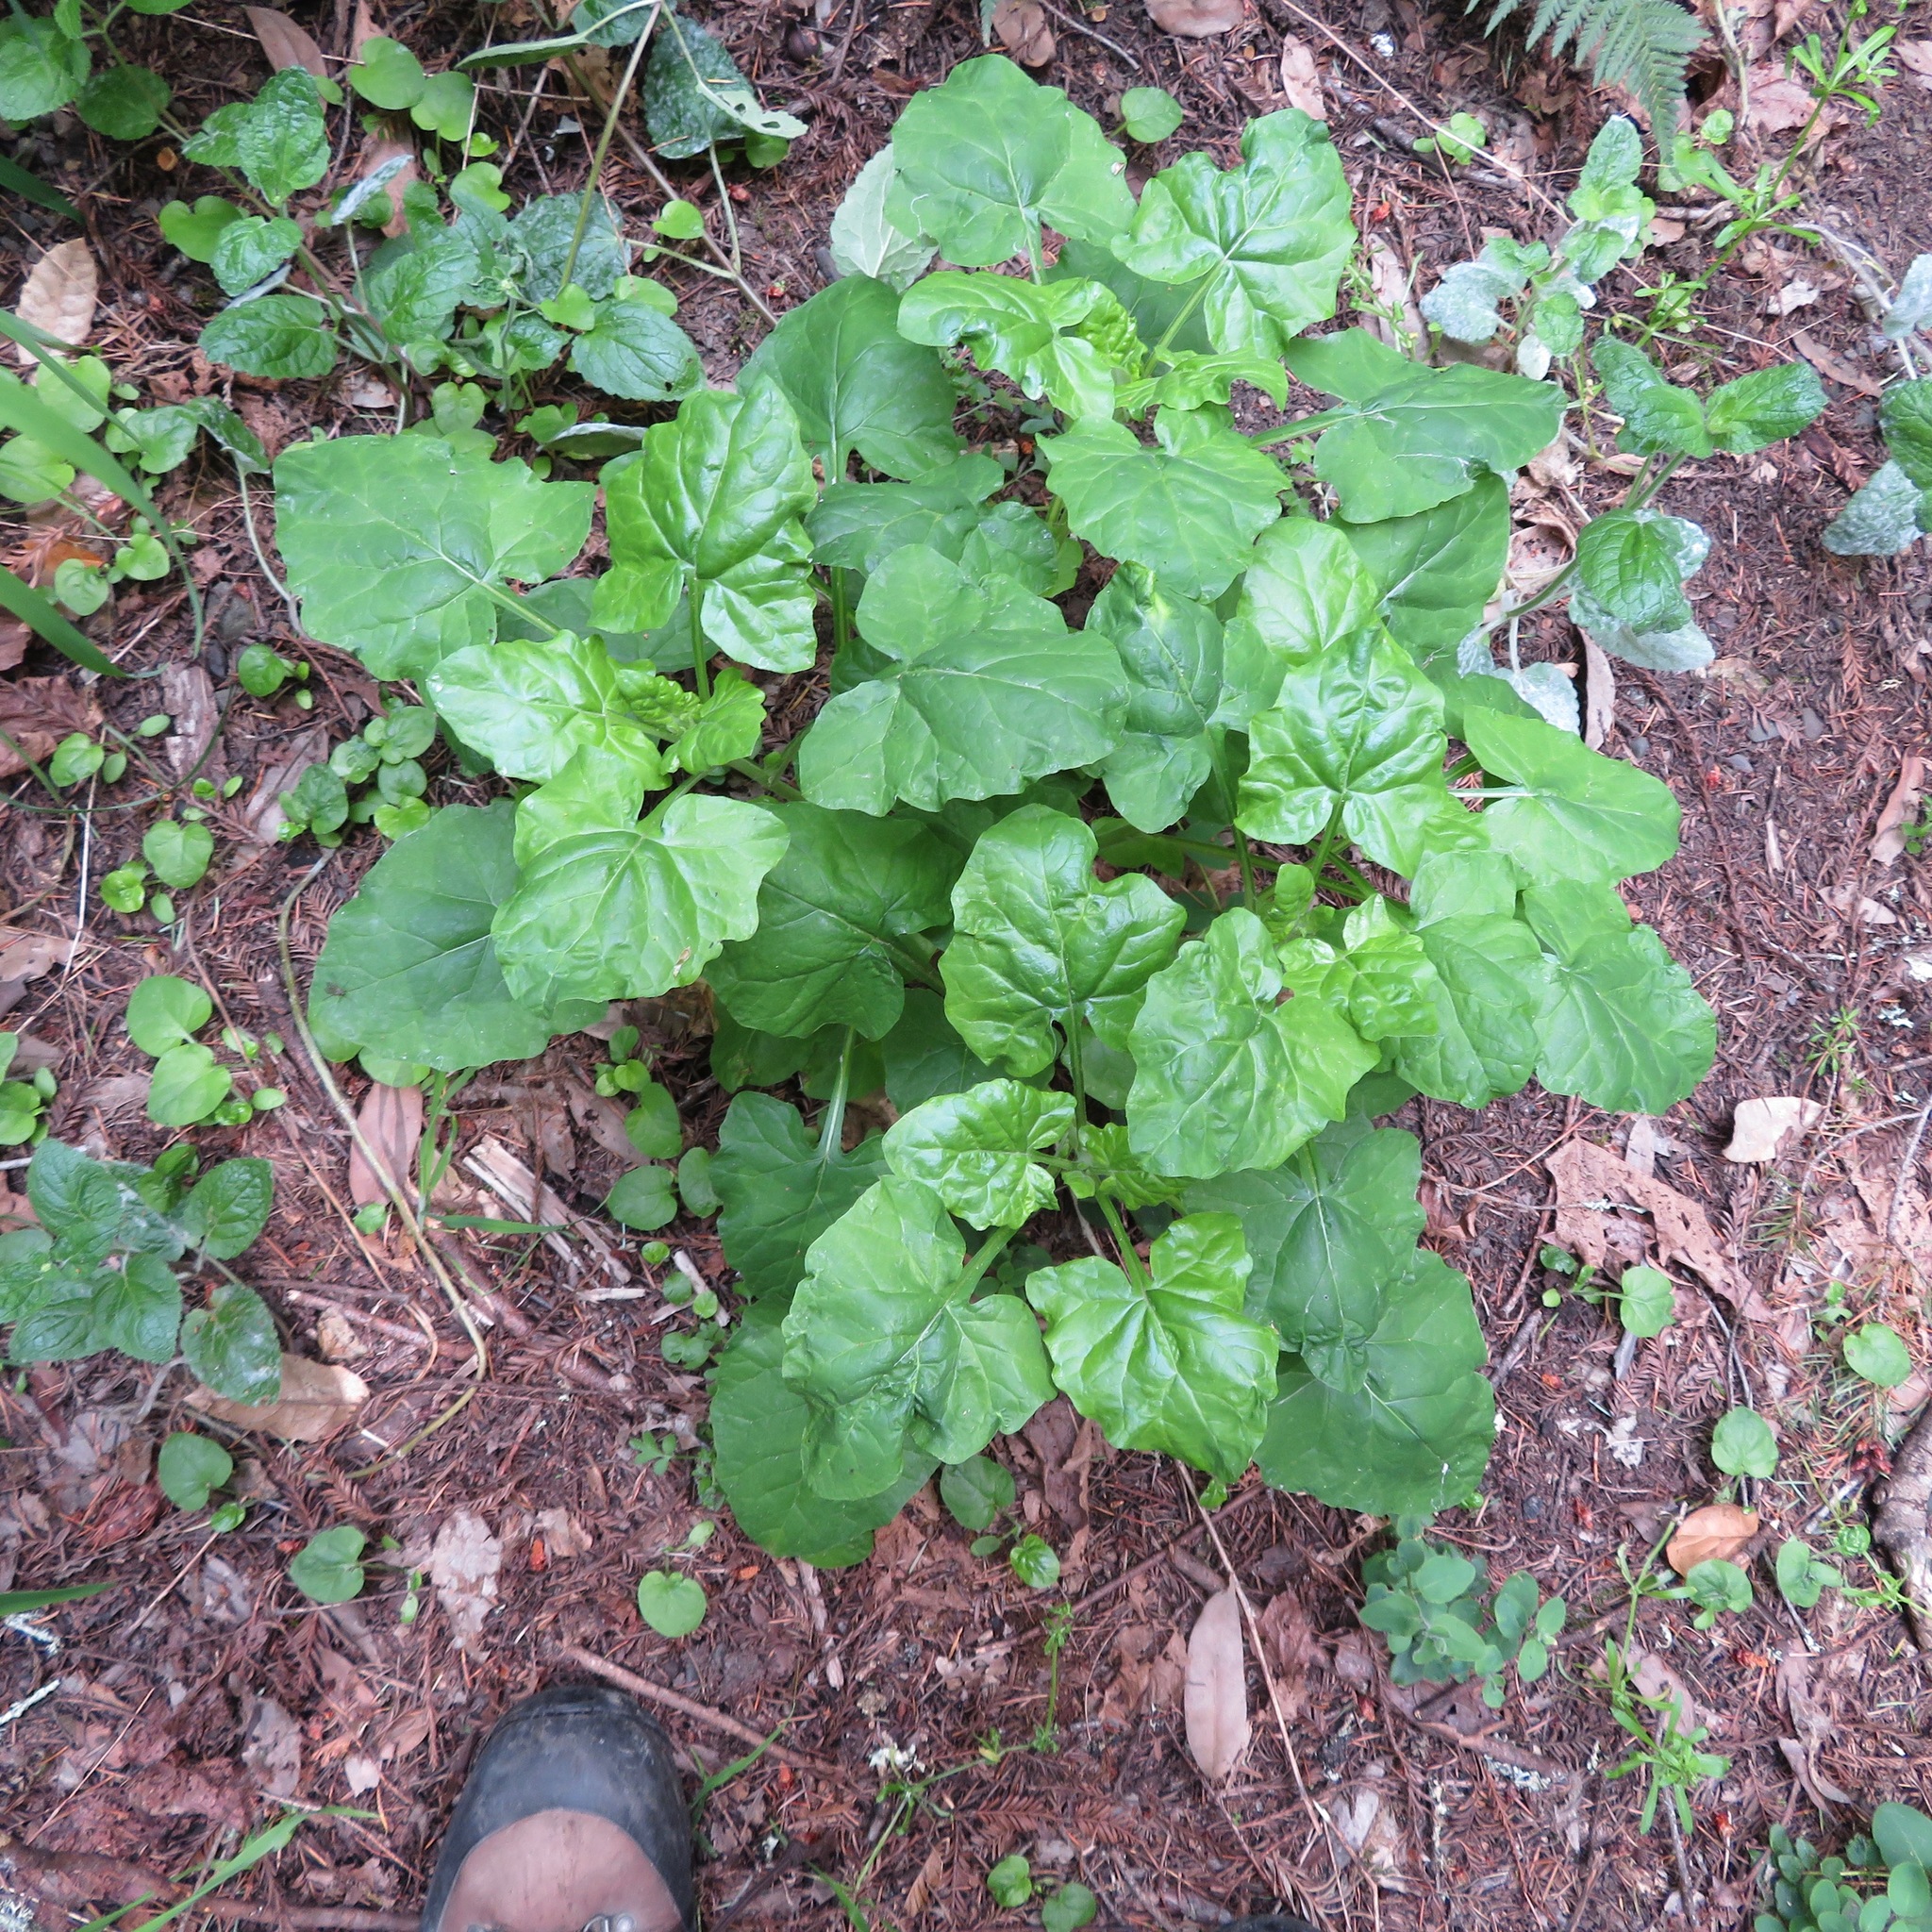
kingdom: Plantae
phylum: Tracheophyta
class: Magnoliopsida
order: Asterales
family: Asteraceae
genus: Adenocaulon
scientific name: Adenocaulon bicolor
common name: Trailplant
